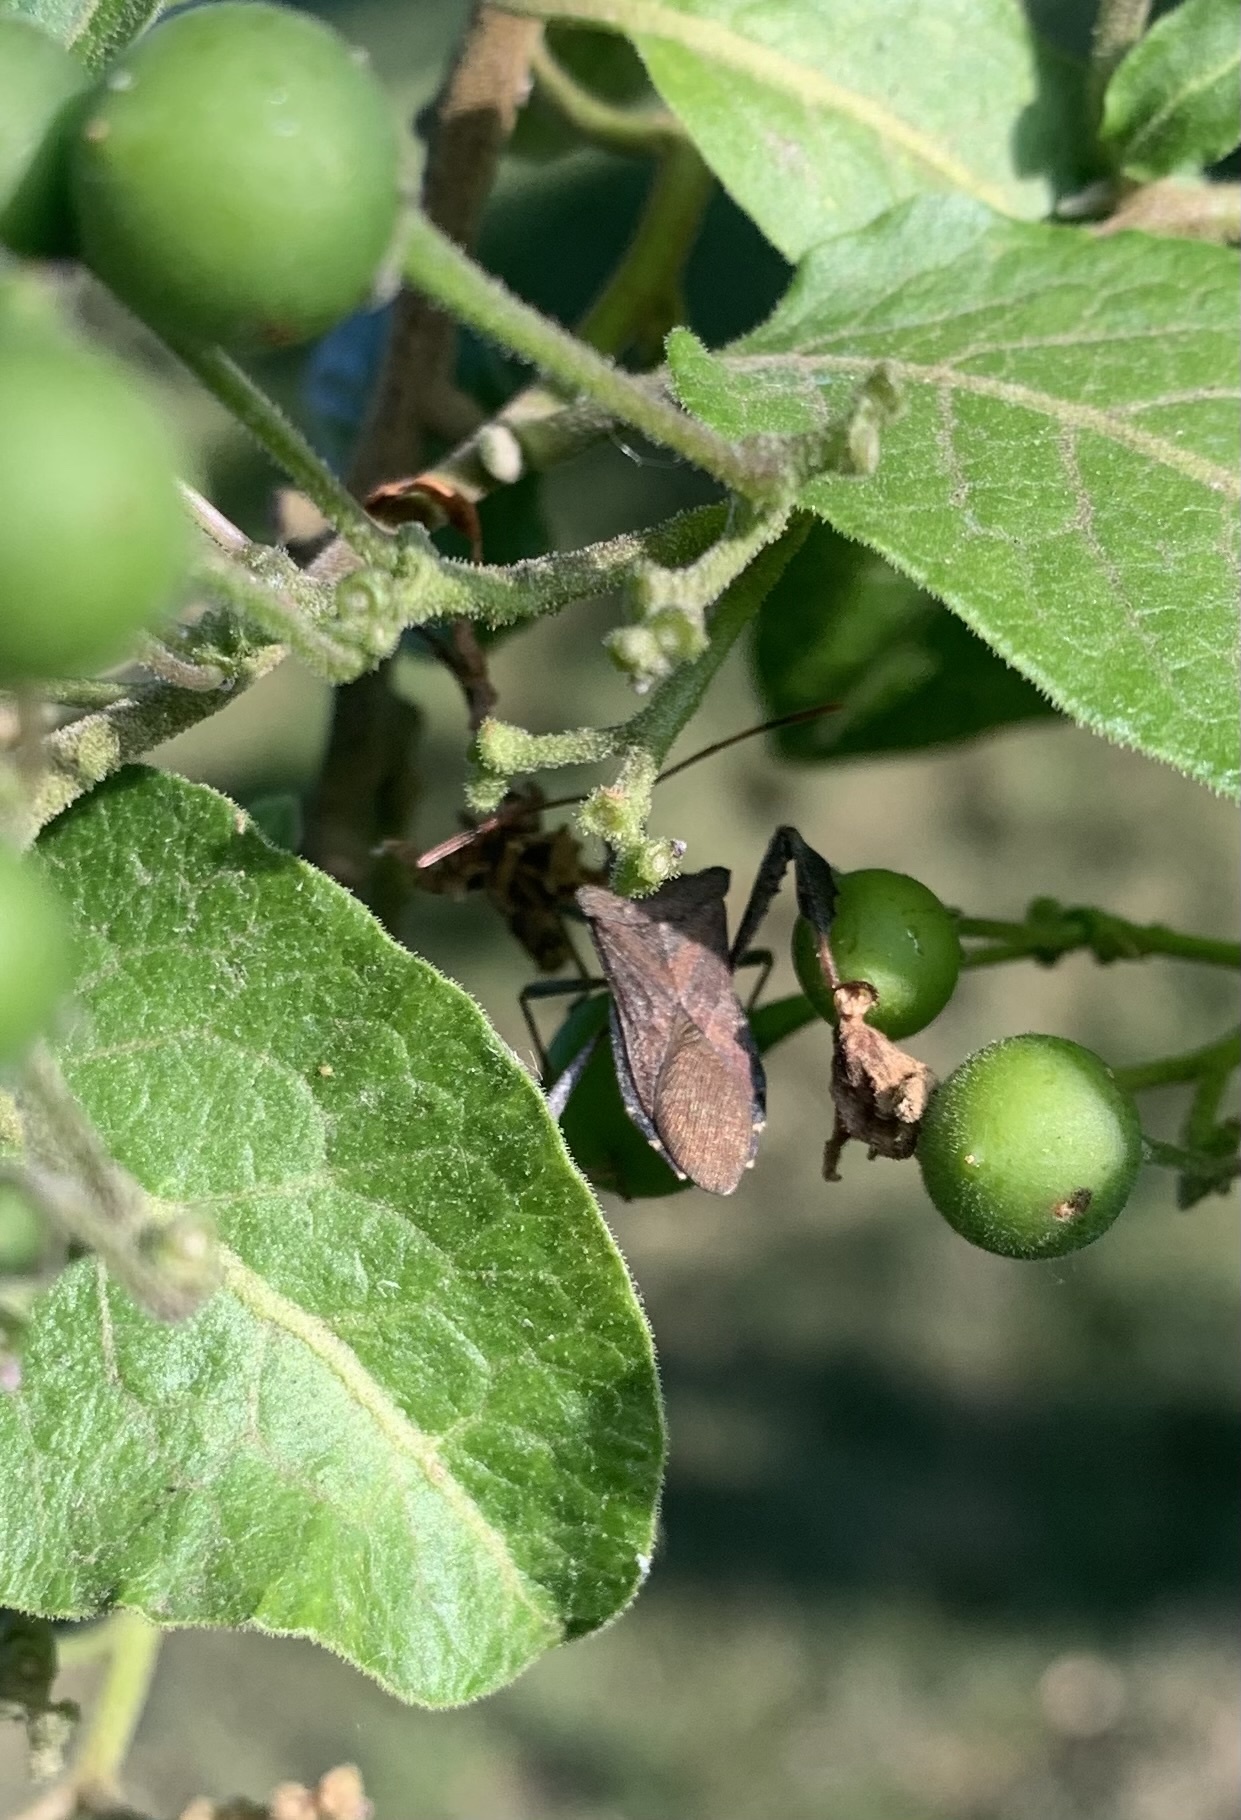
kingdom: Animalia
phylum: Arthropoda
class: Insecta
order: Hemiptera
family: Coreidae
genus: Leptoglossus
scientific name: Leptoglossus chilensis
